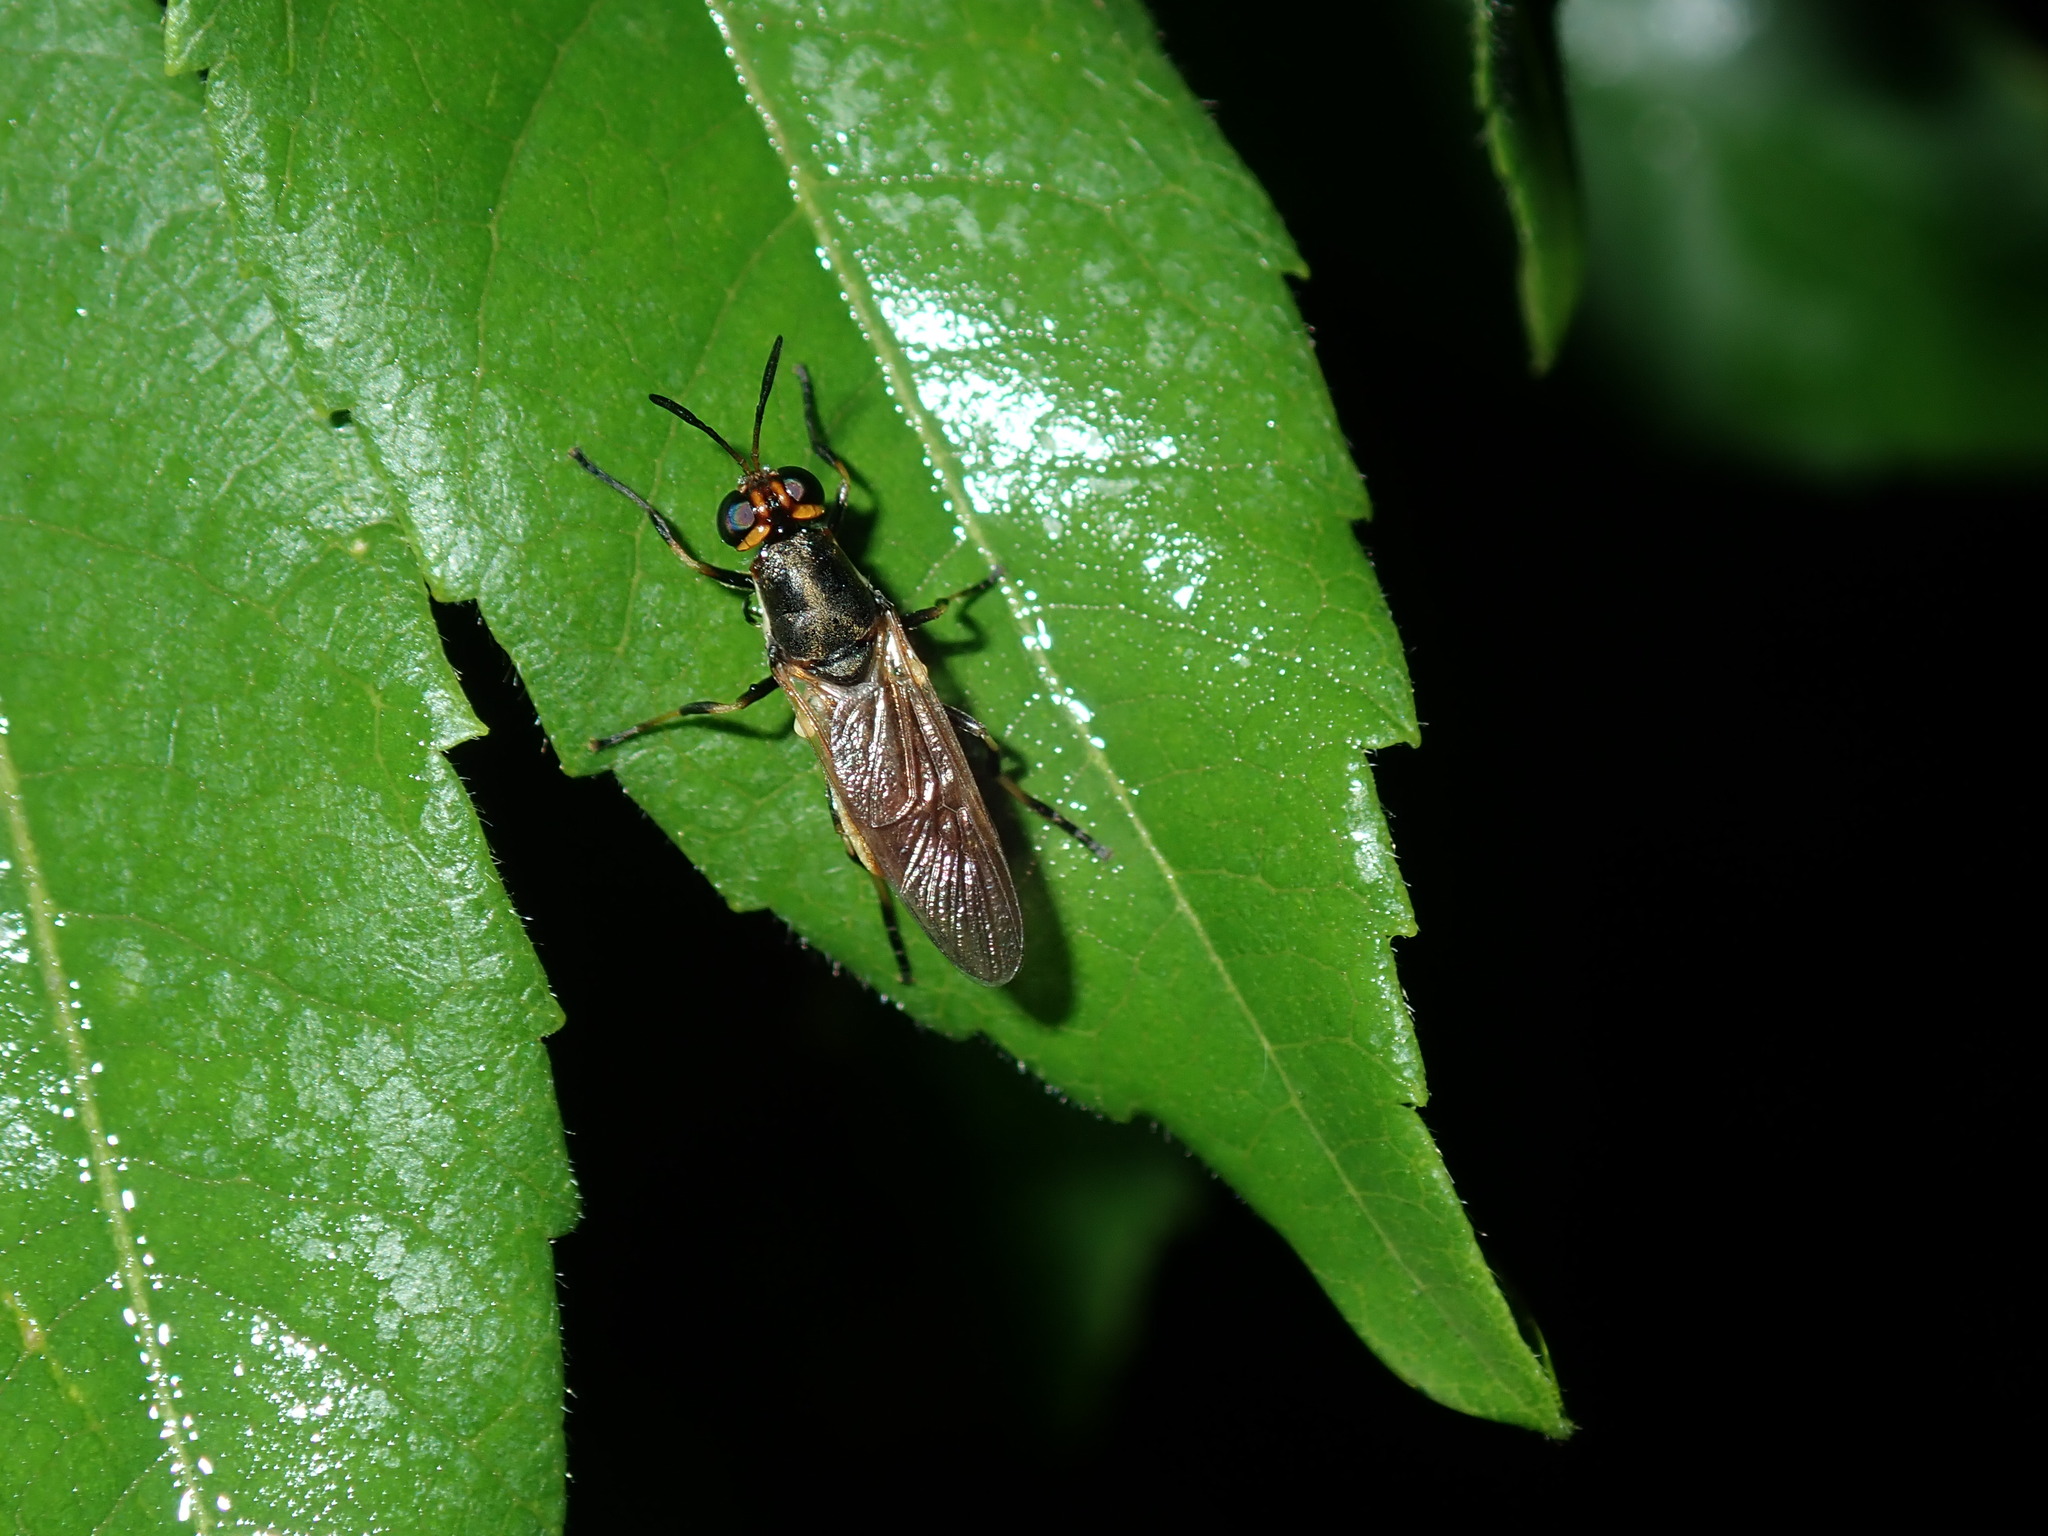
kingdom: Animalia
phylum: Arthropoda
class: Insecta
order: Diptera
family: Stratiomyidae
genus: Lagenosoma
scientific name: Lagenosoma dispar
